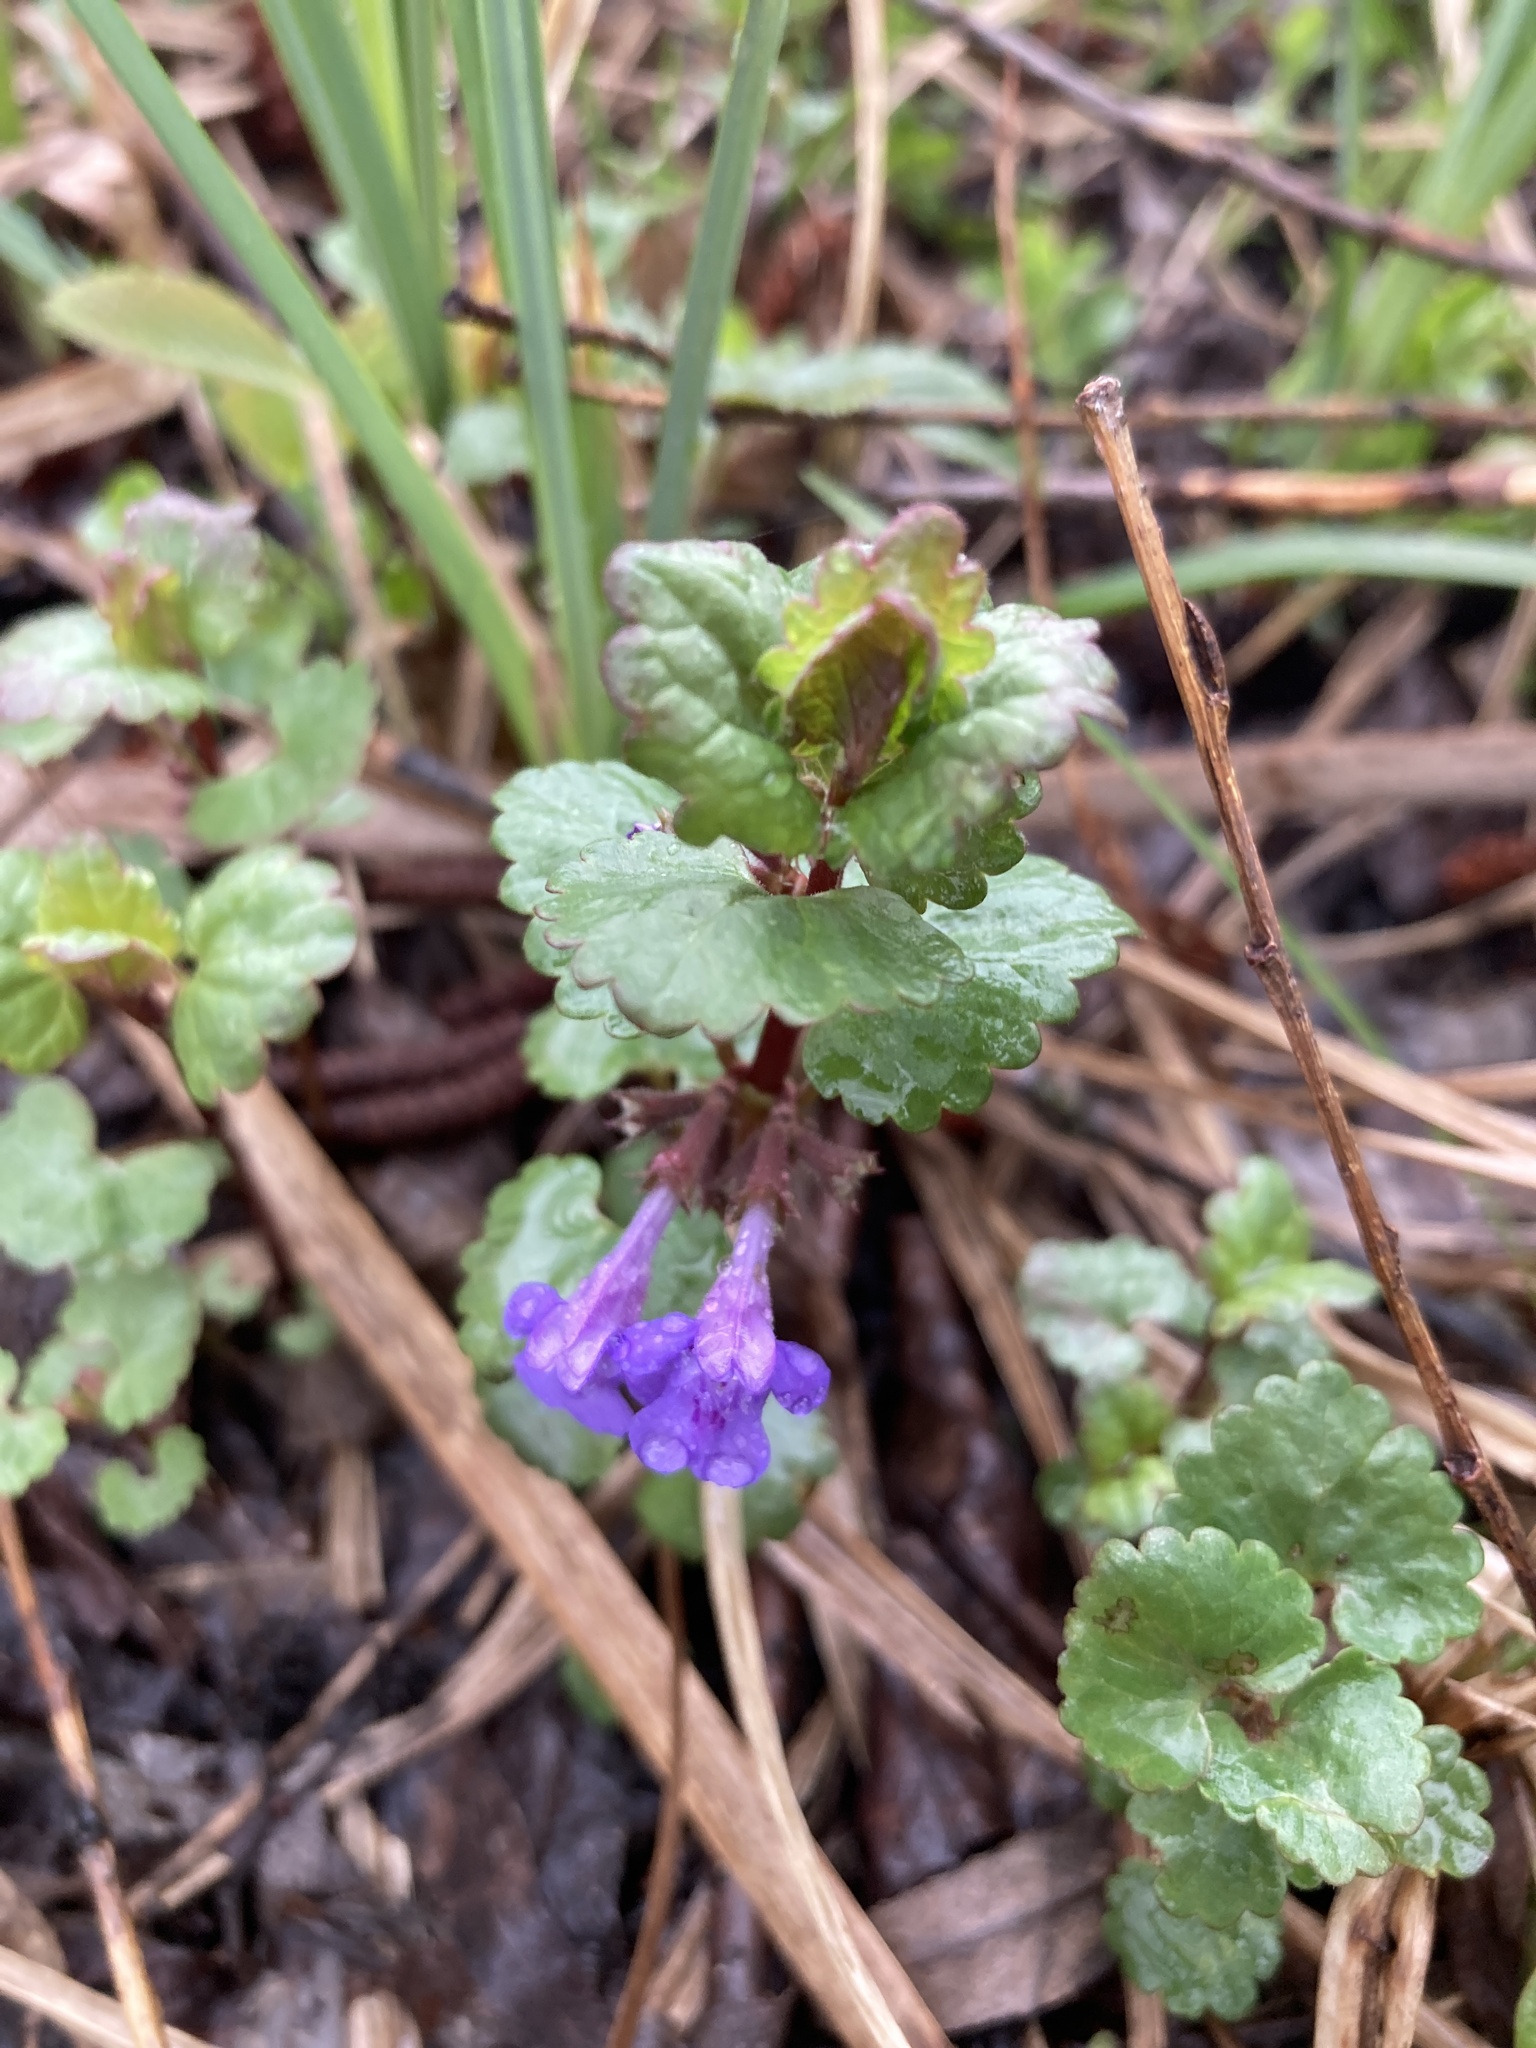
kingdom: Plantae
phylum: Tracheophyta
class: Magnoliopsida
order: Lamiales
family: Lamiaceae
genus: Glechoma
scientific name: Glechoma hederacea
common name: Ground ivy
